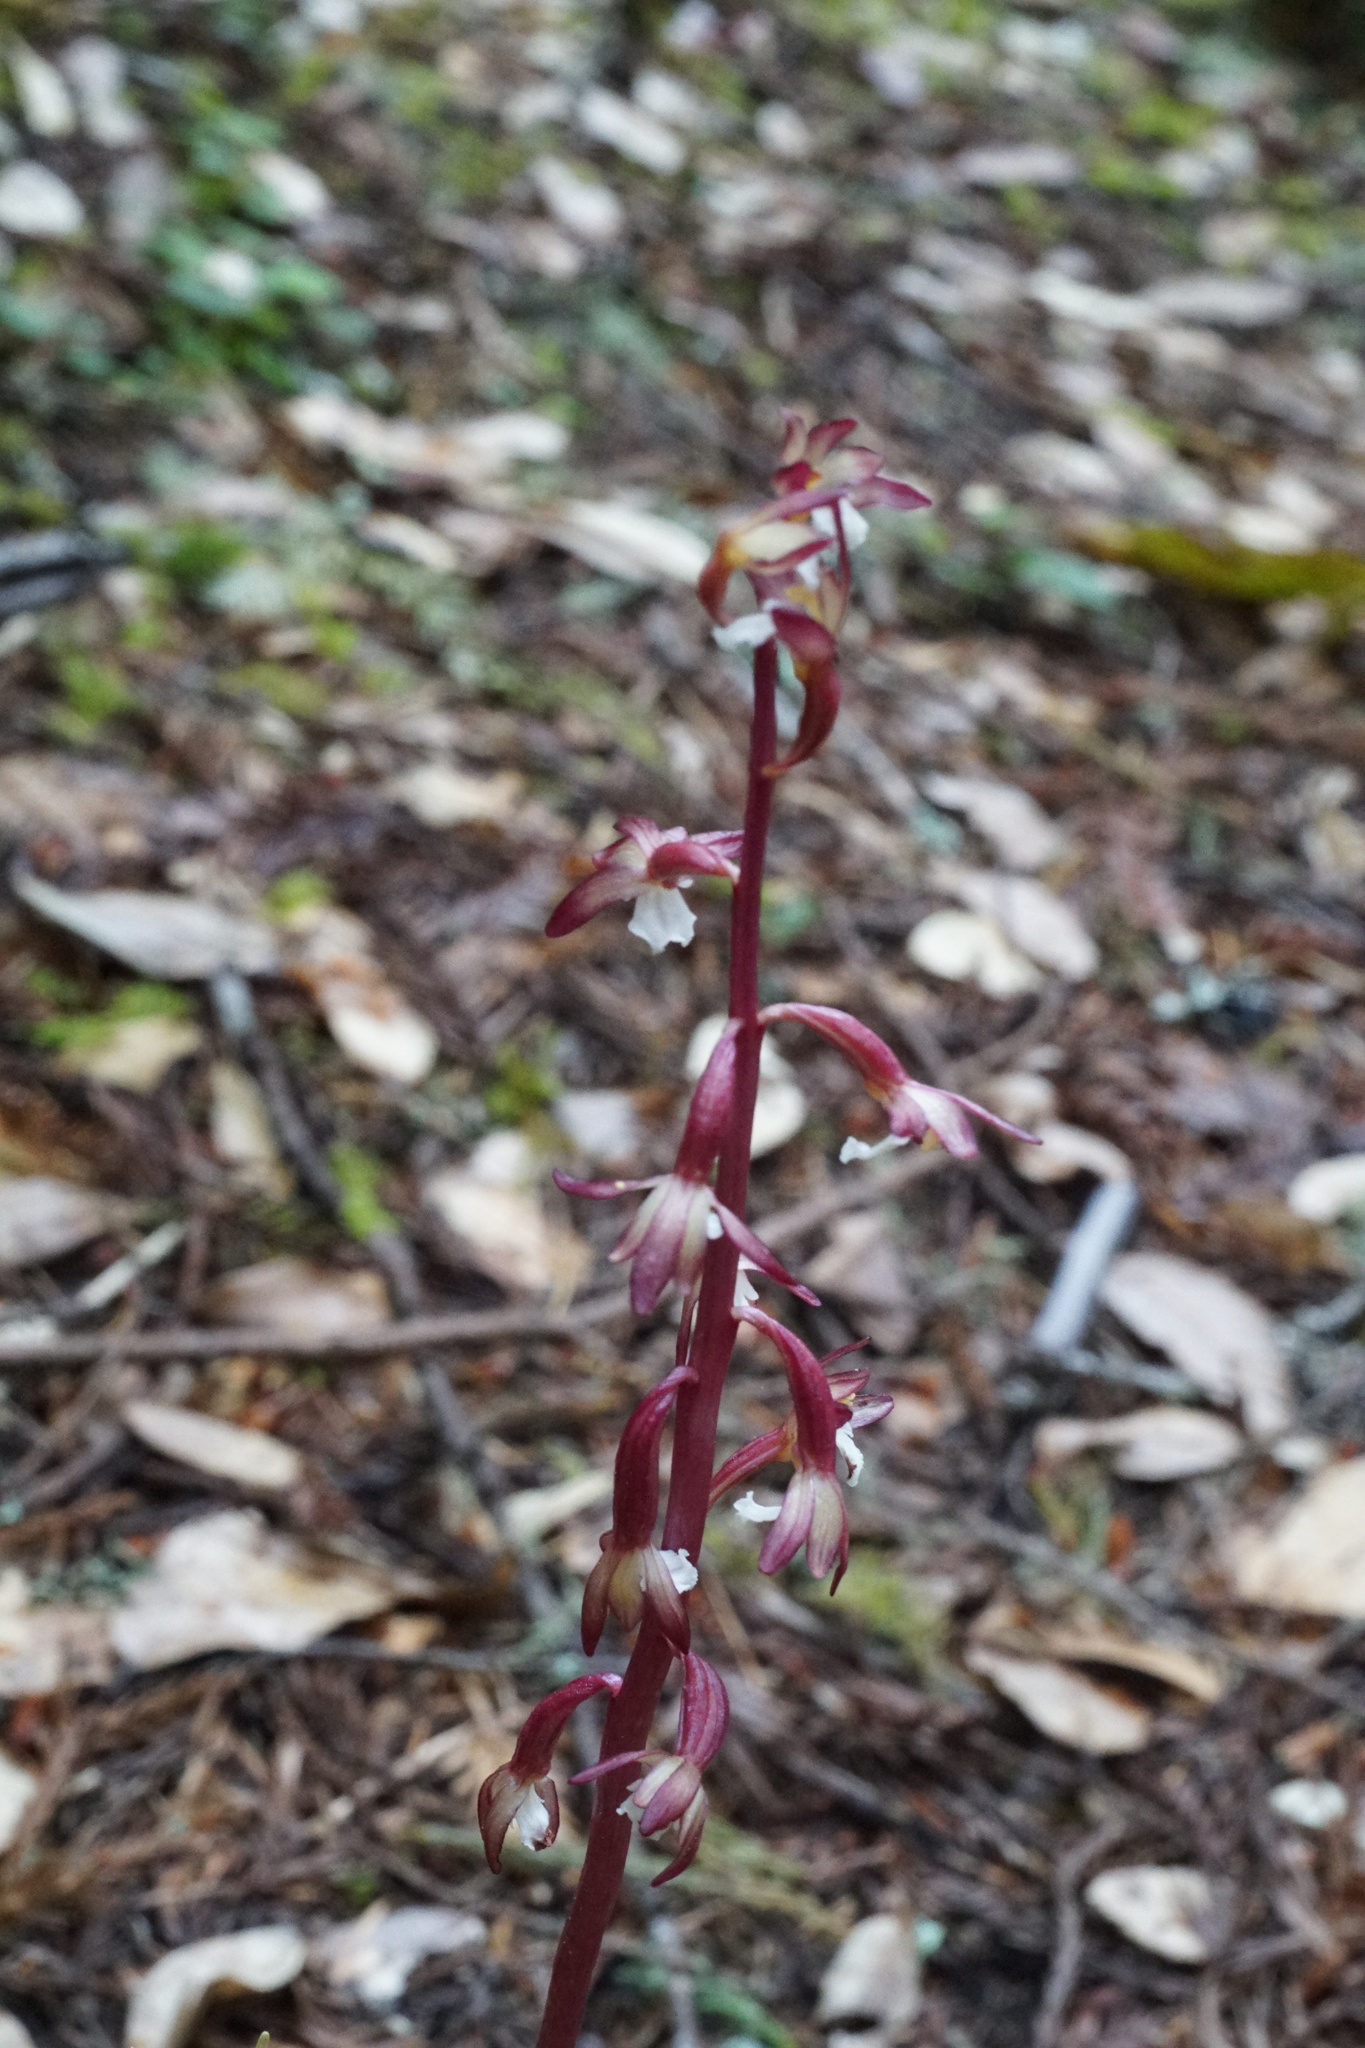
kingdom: Plantae
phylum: Tracheophyta
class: Liliopsida
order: Asparagales
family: Orchidaceae
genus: Corallorhiza
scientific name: Corallorhiza maculata
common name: Spotted coralroot
